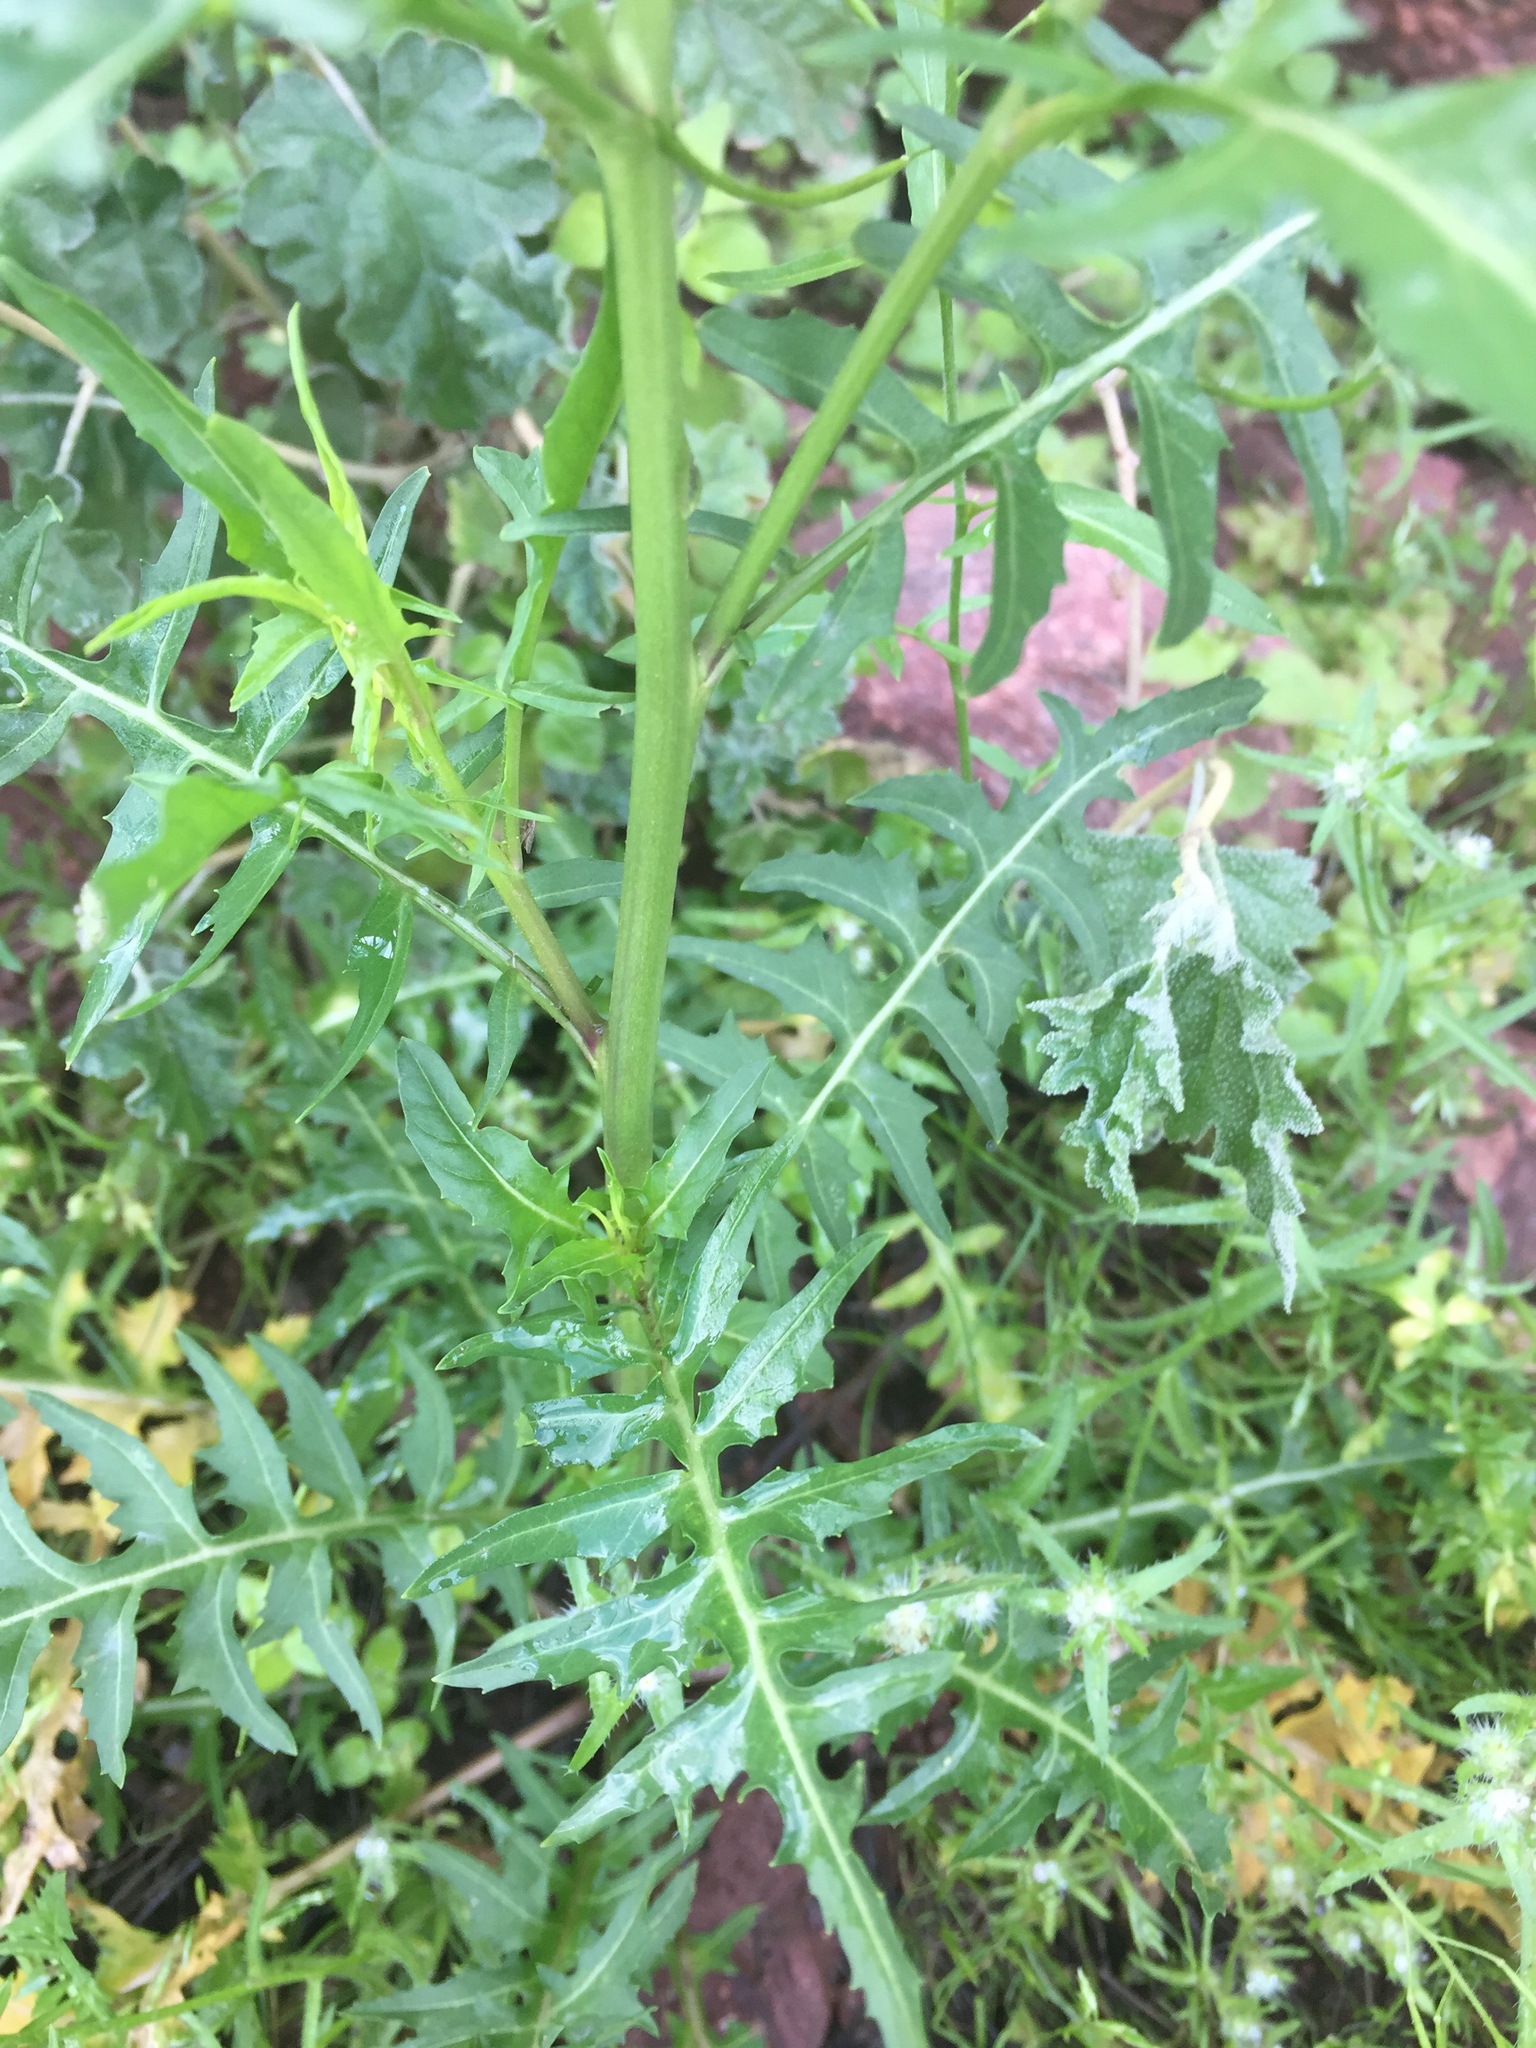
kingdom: Plantae
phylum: Tracheophyta
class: Magnoliopsida
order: Brassicales
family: Brassicaceae
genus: Sisymbrium
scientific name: Sisymbrium irio
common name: London rocket
